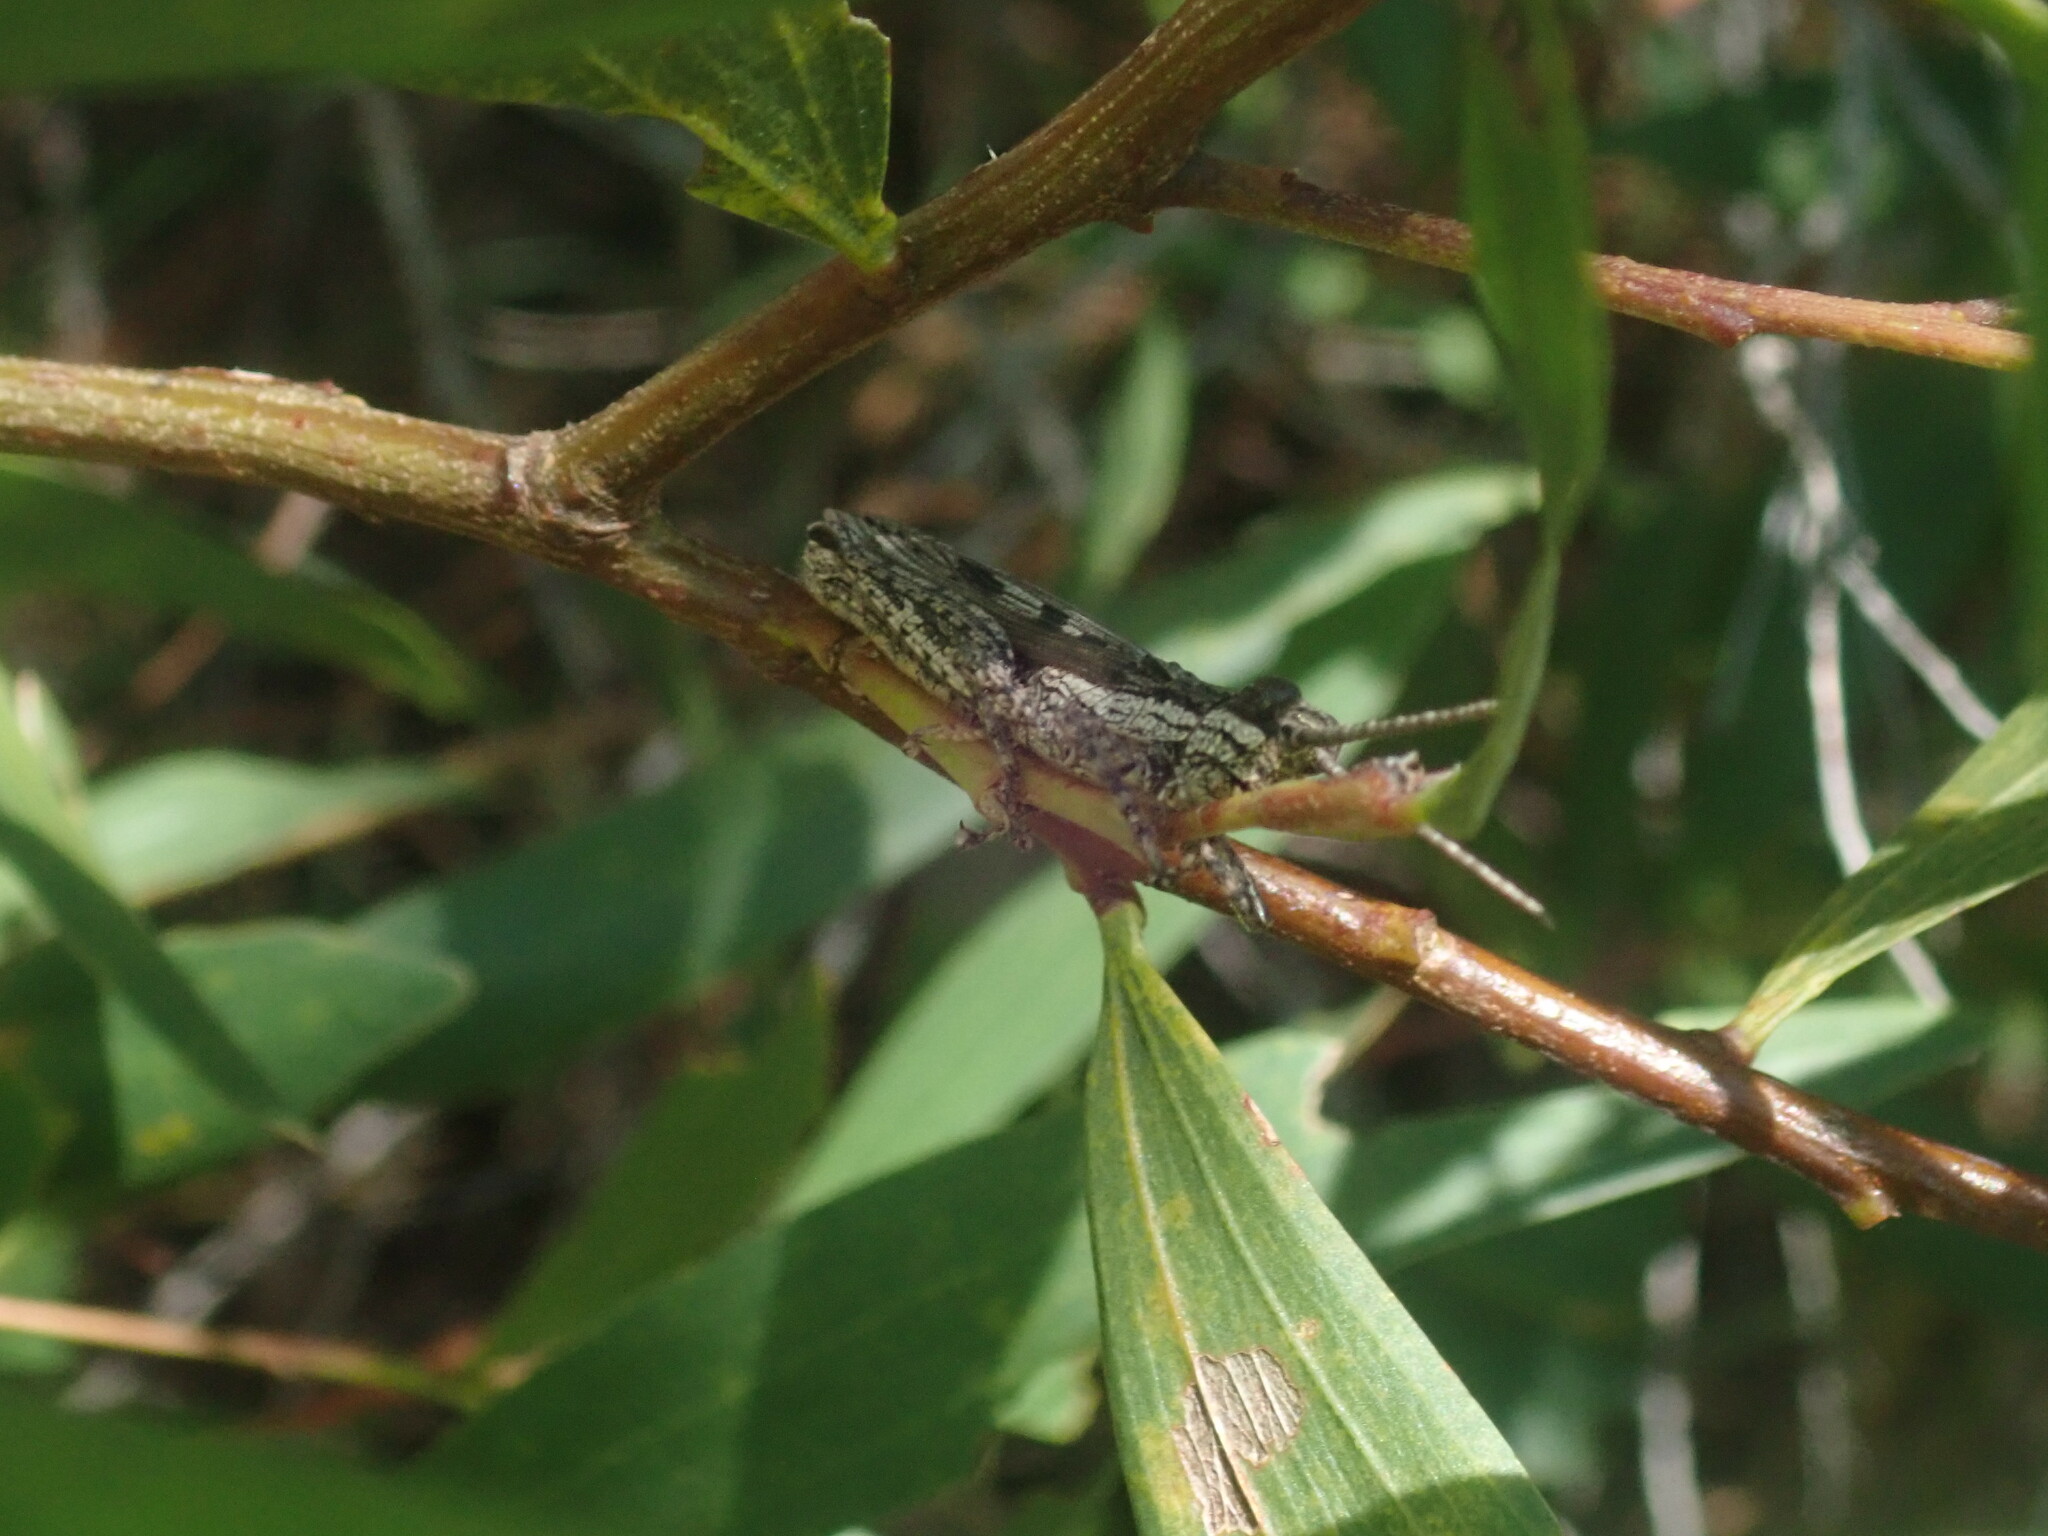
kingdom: Animalia
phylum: Arthropoda
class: Insecta
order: Orthoptera
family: Acrididae
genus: Coryphistes
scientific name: Coryphistes ruricola
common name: Bark-mimicking grasshopper
